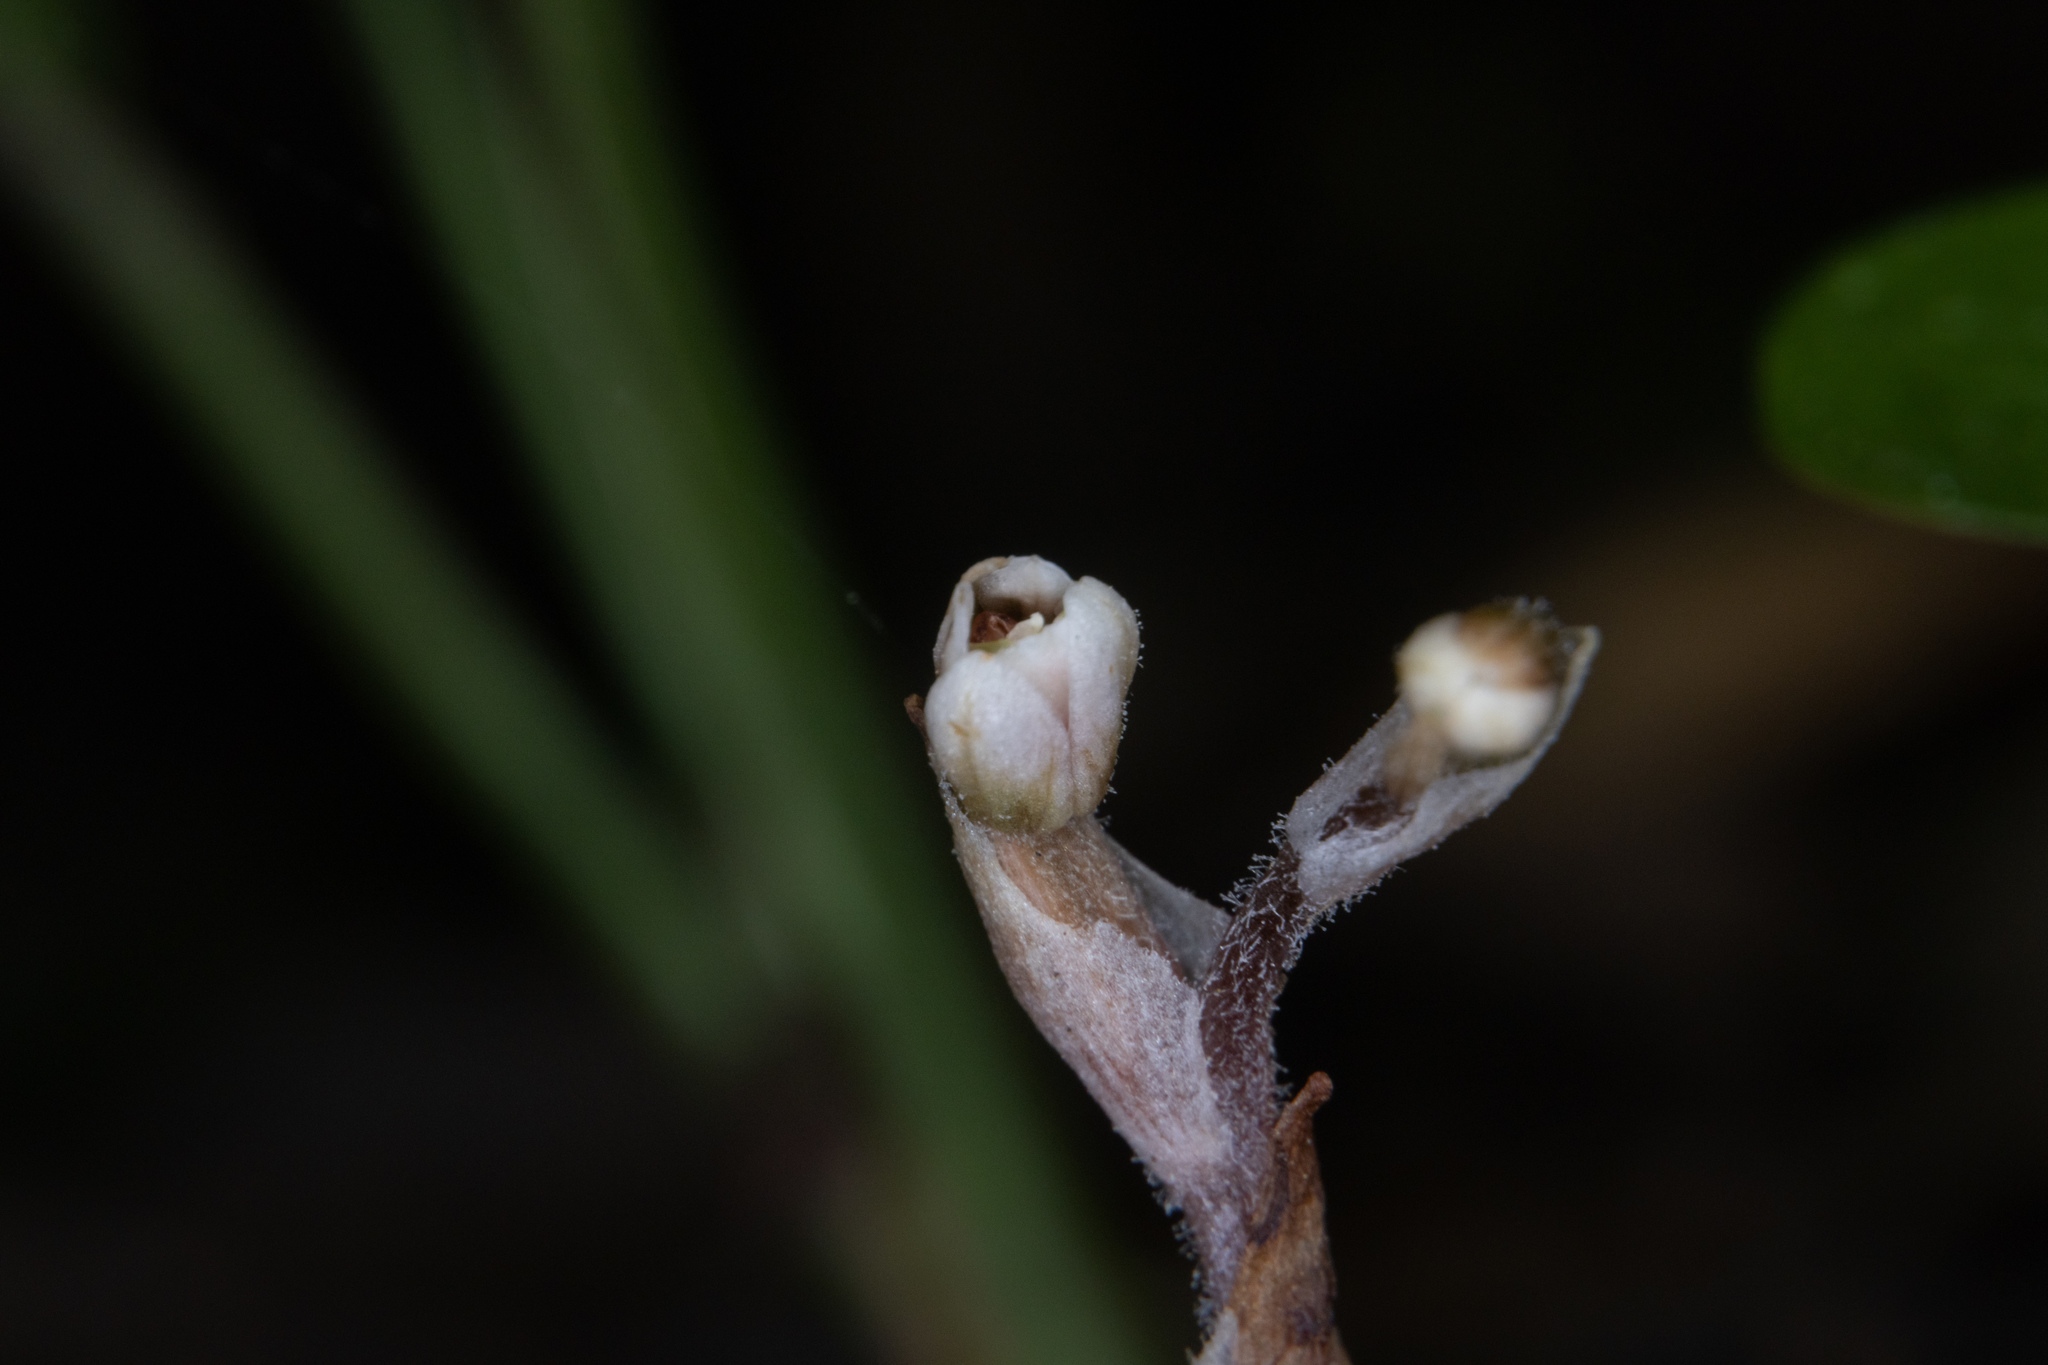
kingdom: Plantae
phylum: Tracheophyta
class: Liliopsida
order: Asparagales
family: Orchidaceae
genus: Danhatchia
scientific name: Danhatchia australis
